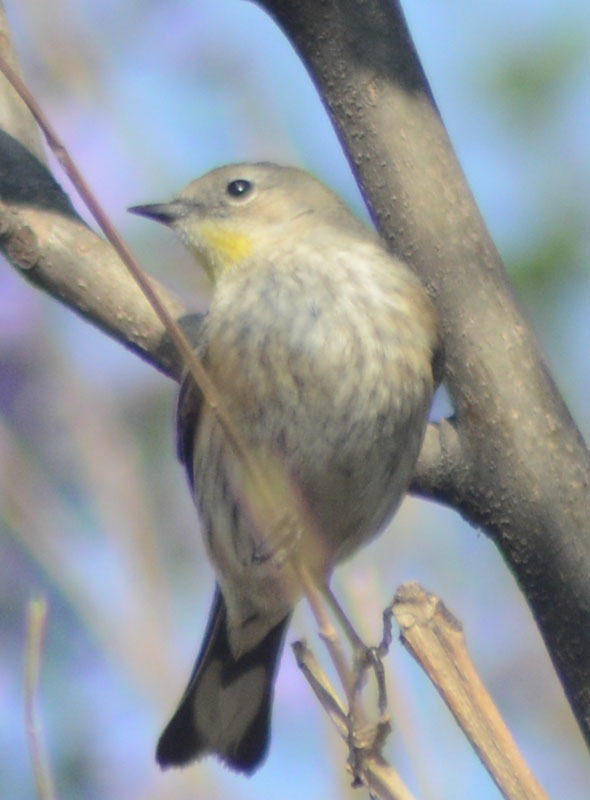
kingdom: Animalia
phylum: Chordata
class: Aves
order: Passeriformes
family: Parulidae
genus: Setophaga
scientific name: Setophaga auduboni
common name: Audubon's warbler
